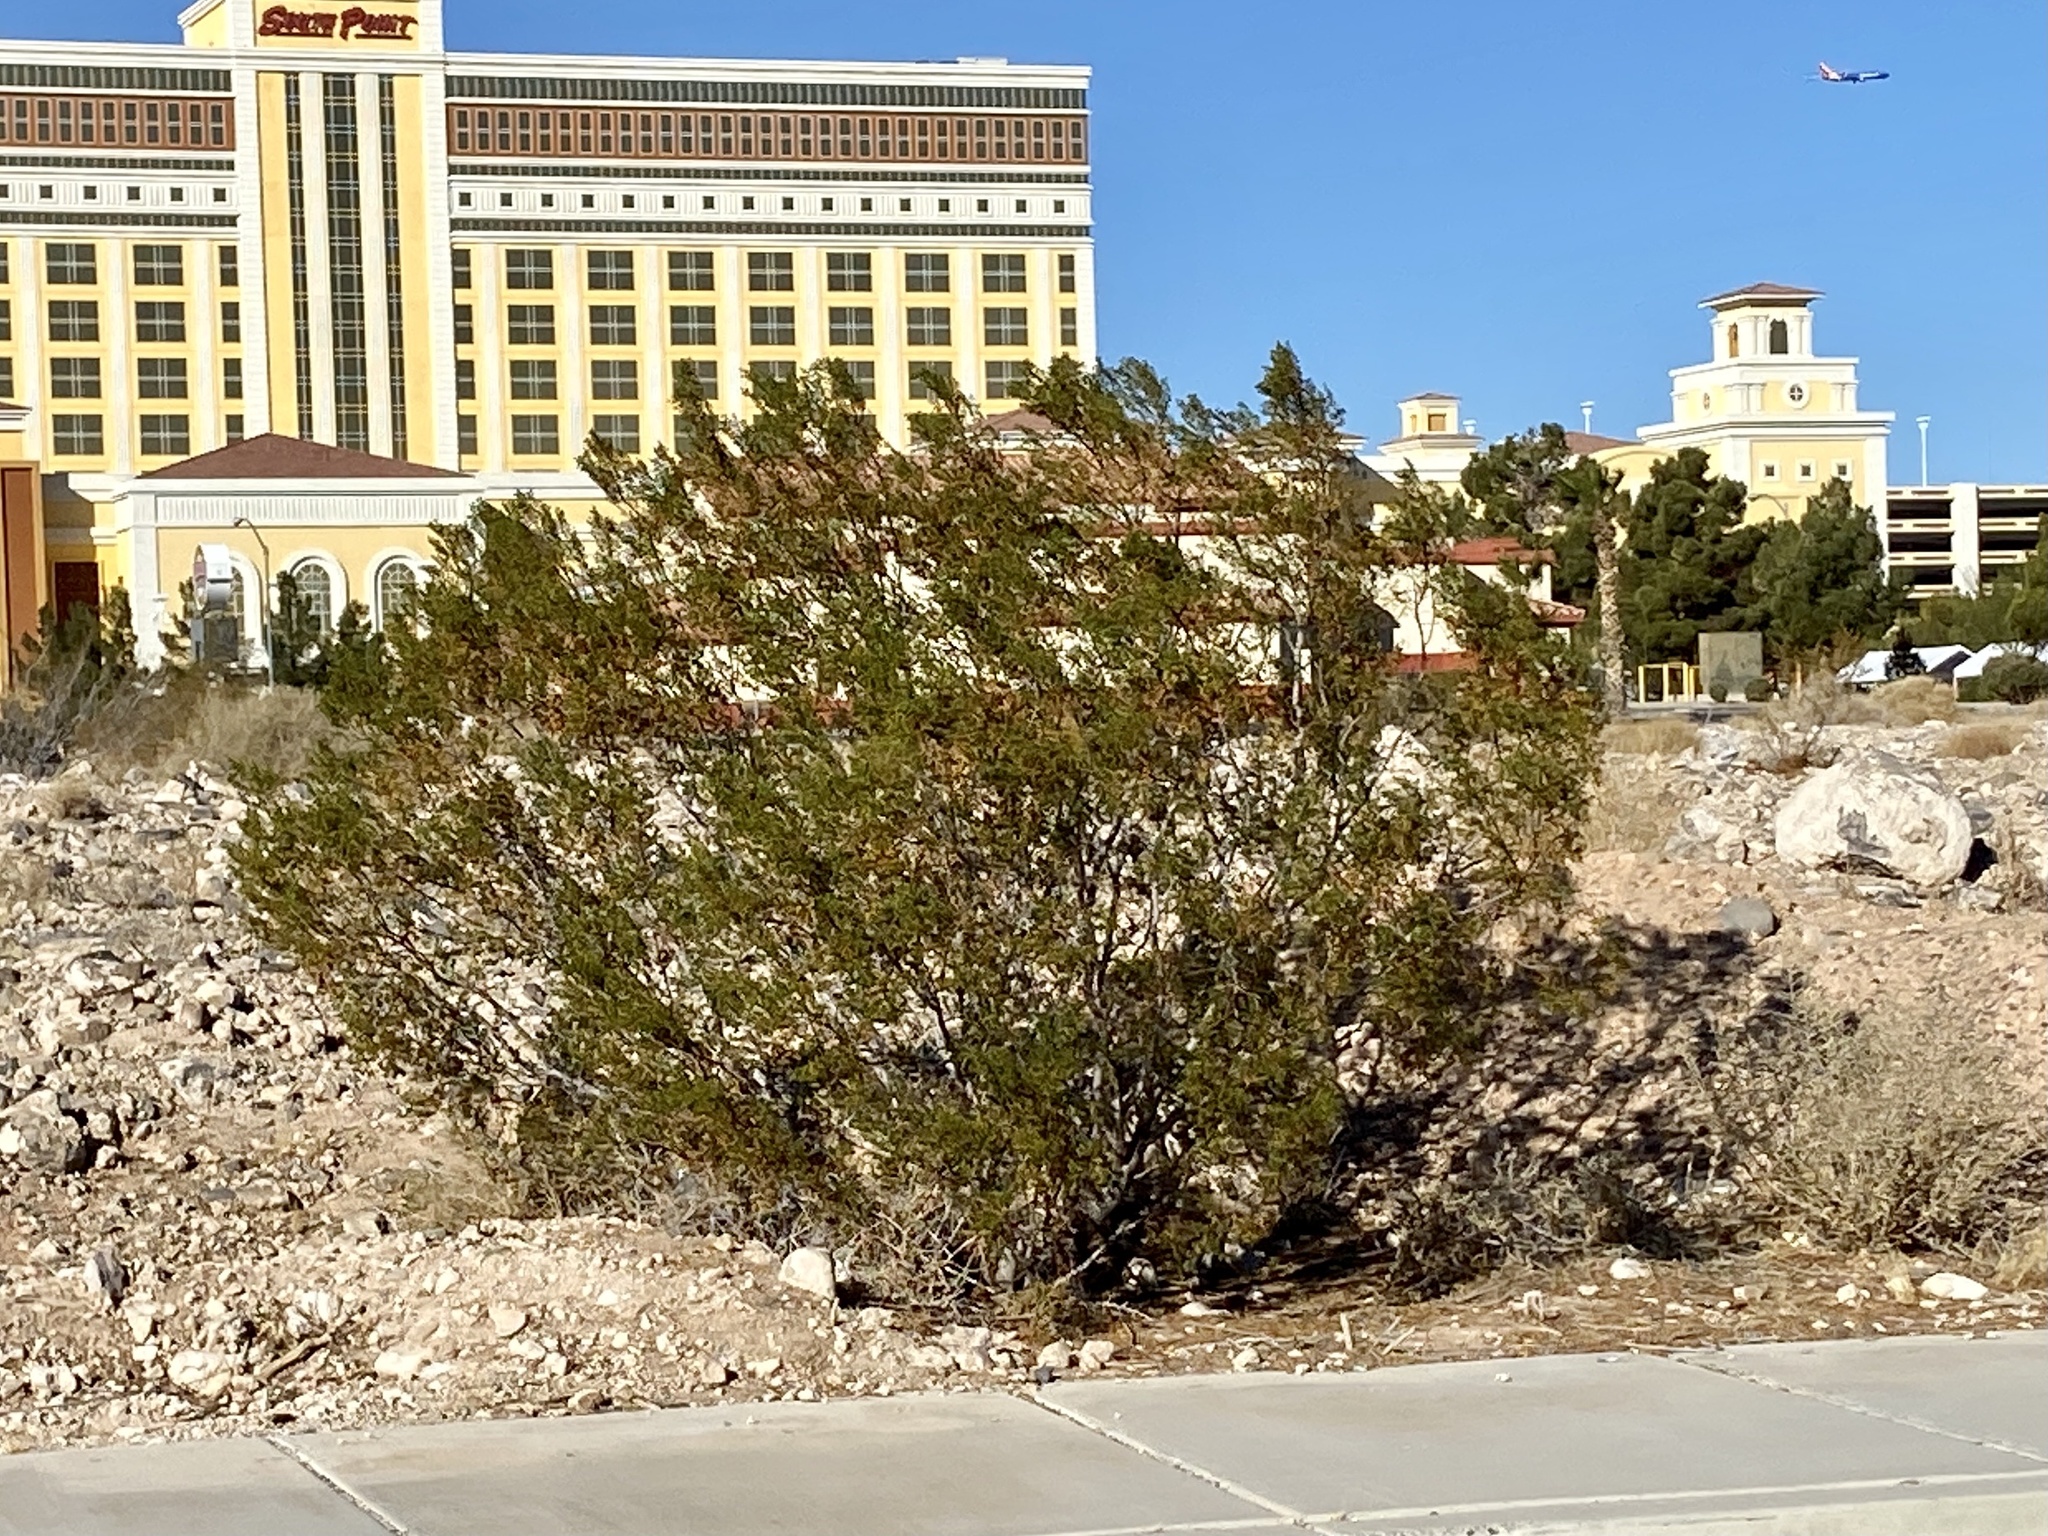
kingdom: Plantae
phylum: Tracheophyta
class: Magnoliopsida
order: Zygophyllales
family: Zygophyllaceae
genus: Larrea
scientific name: Larrea tridentata
